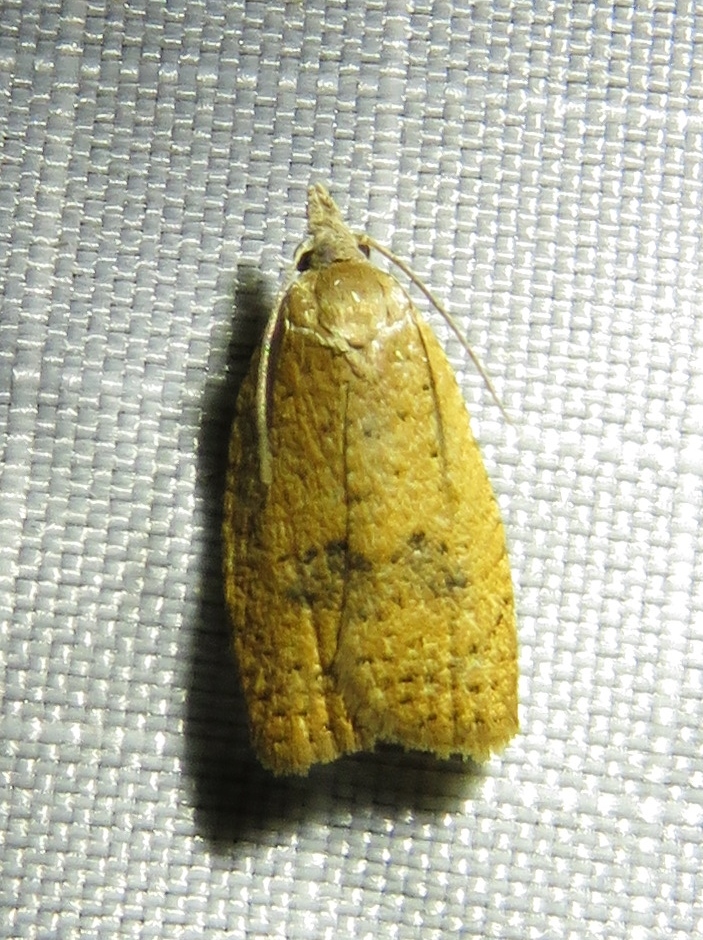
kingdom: Animalia
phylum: Arthropoda
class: Insecta
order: Lepidoptera
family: Tortricidae
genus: Sparganothoides
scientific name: Sparganothoides lentiginosana
